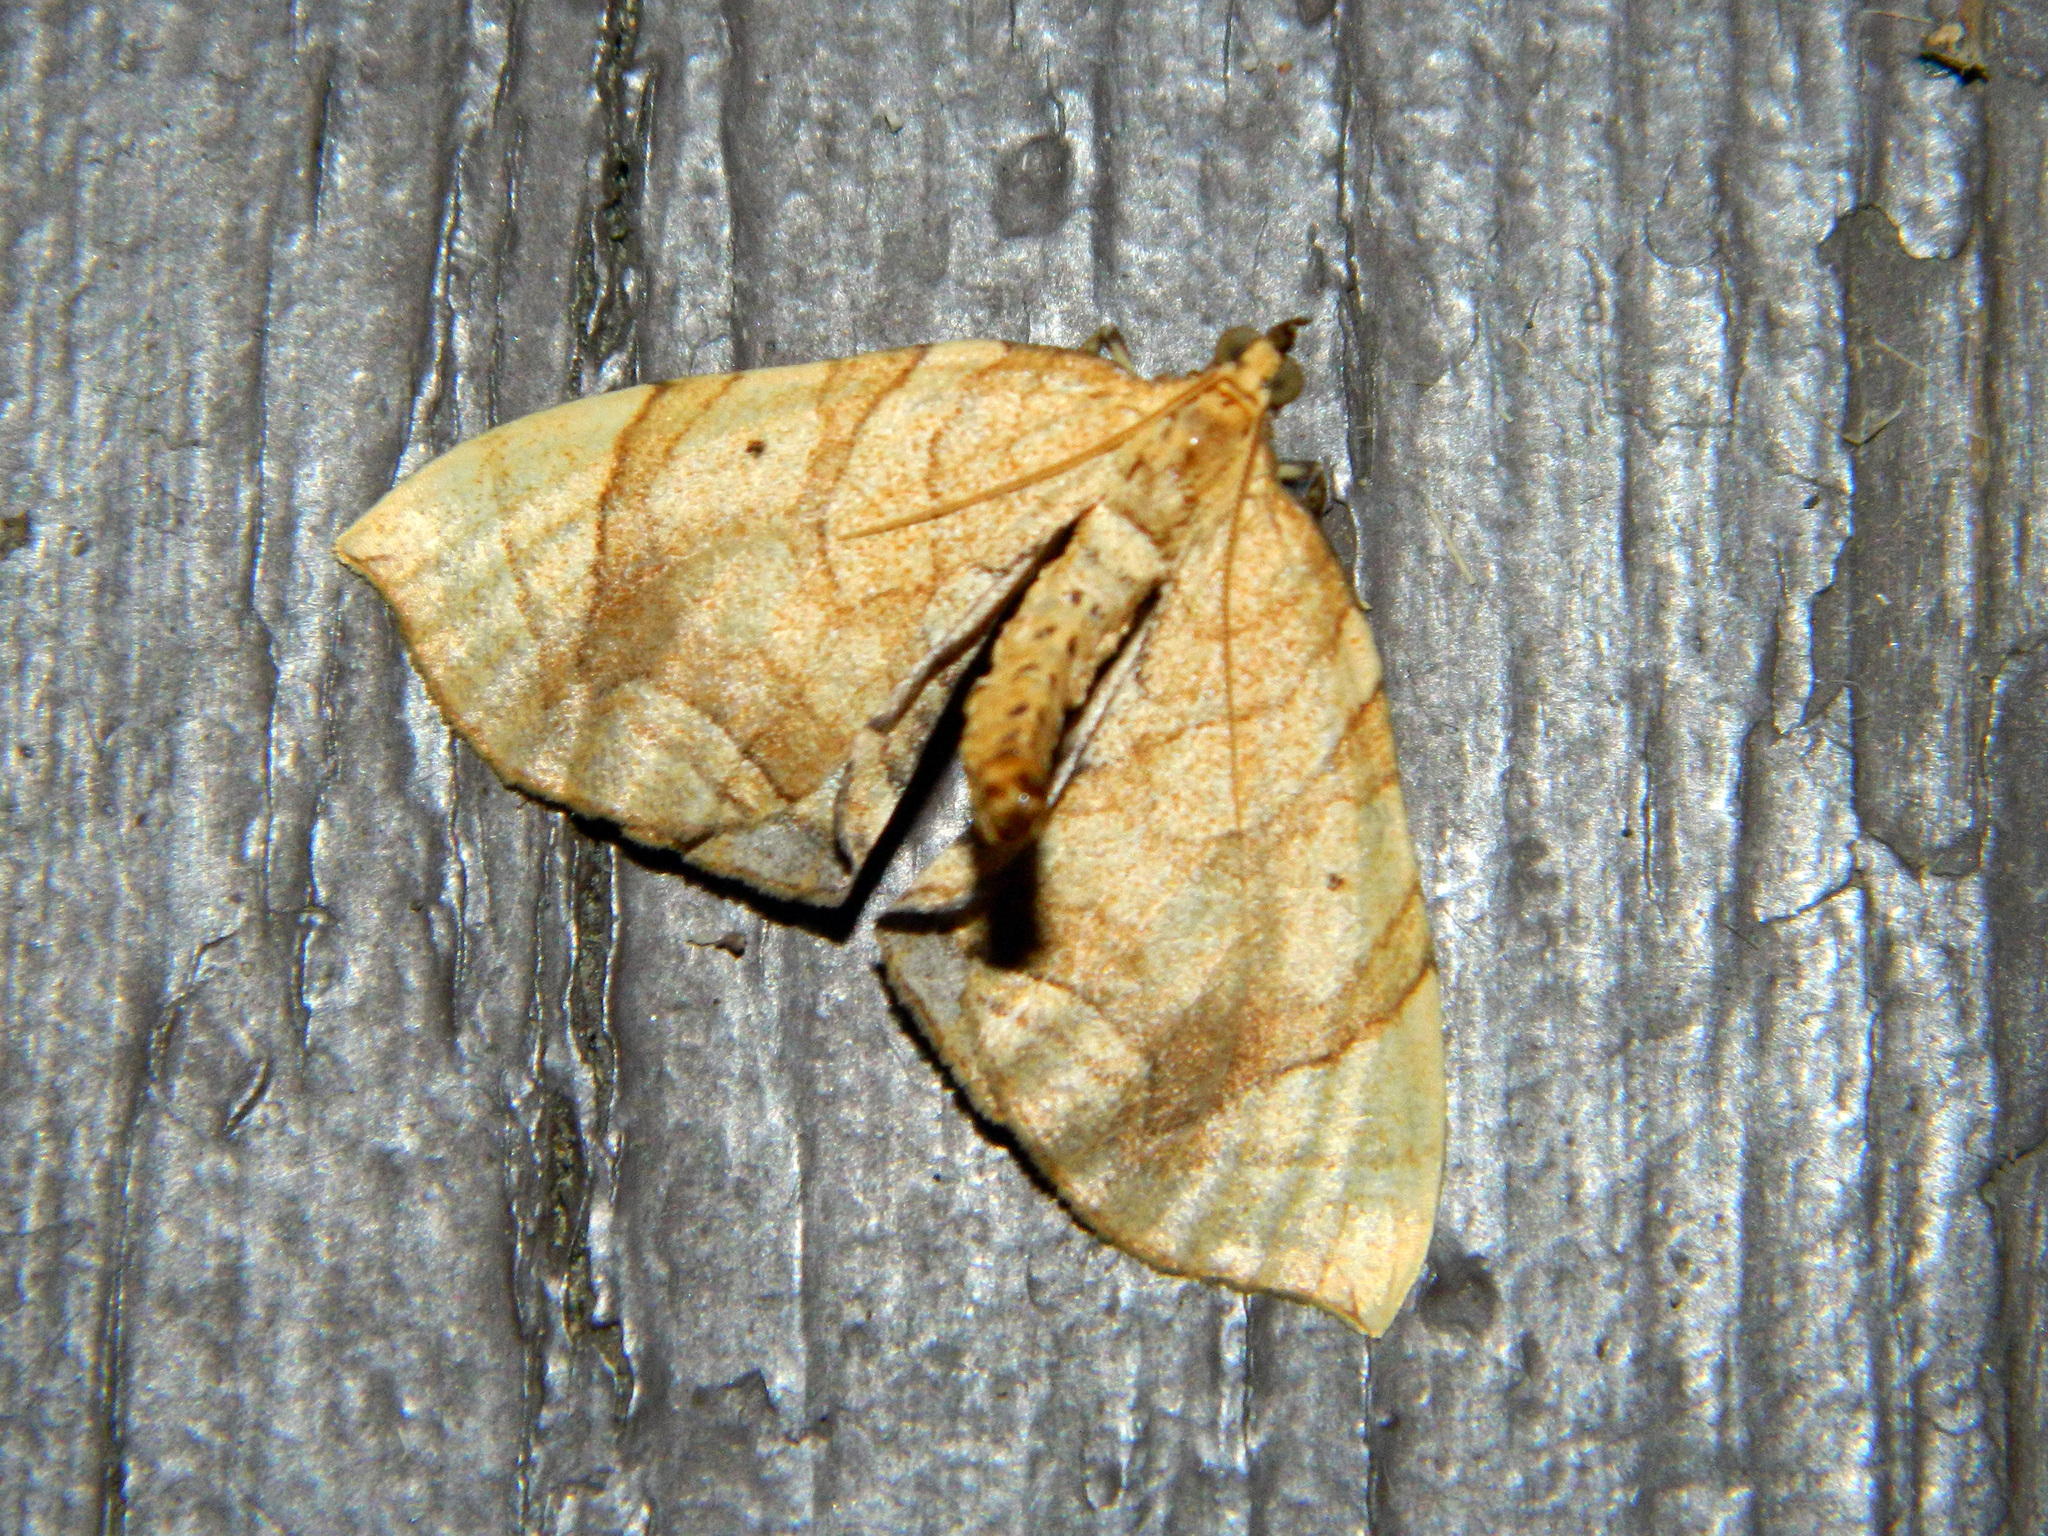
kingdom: Animalia
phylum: Arthropoda
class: Insecta
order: Lepidoptera
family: Geometridae
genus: Eulithis
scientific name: Eulithis
